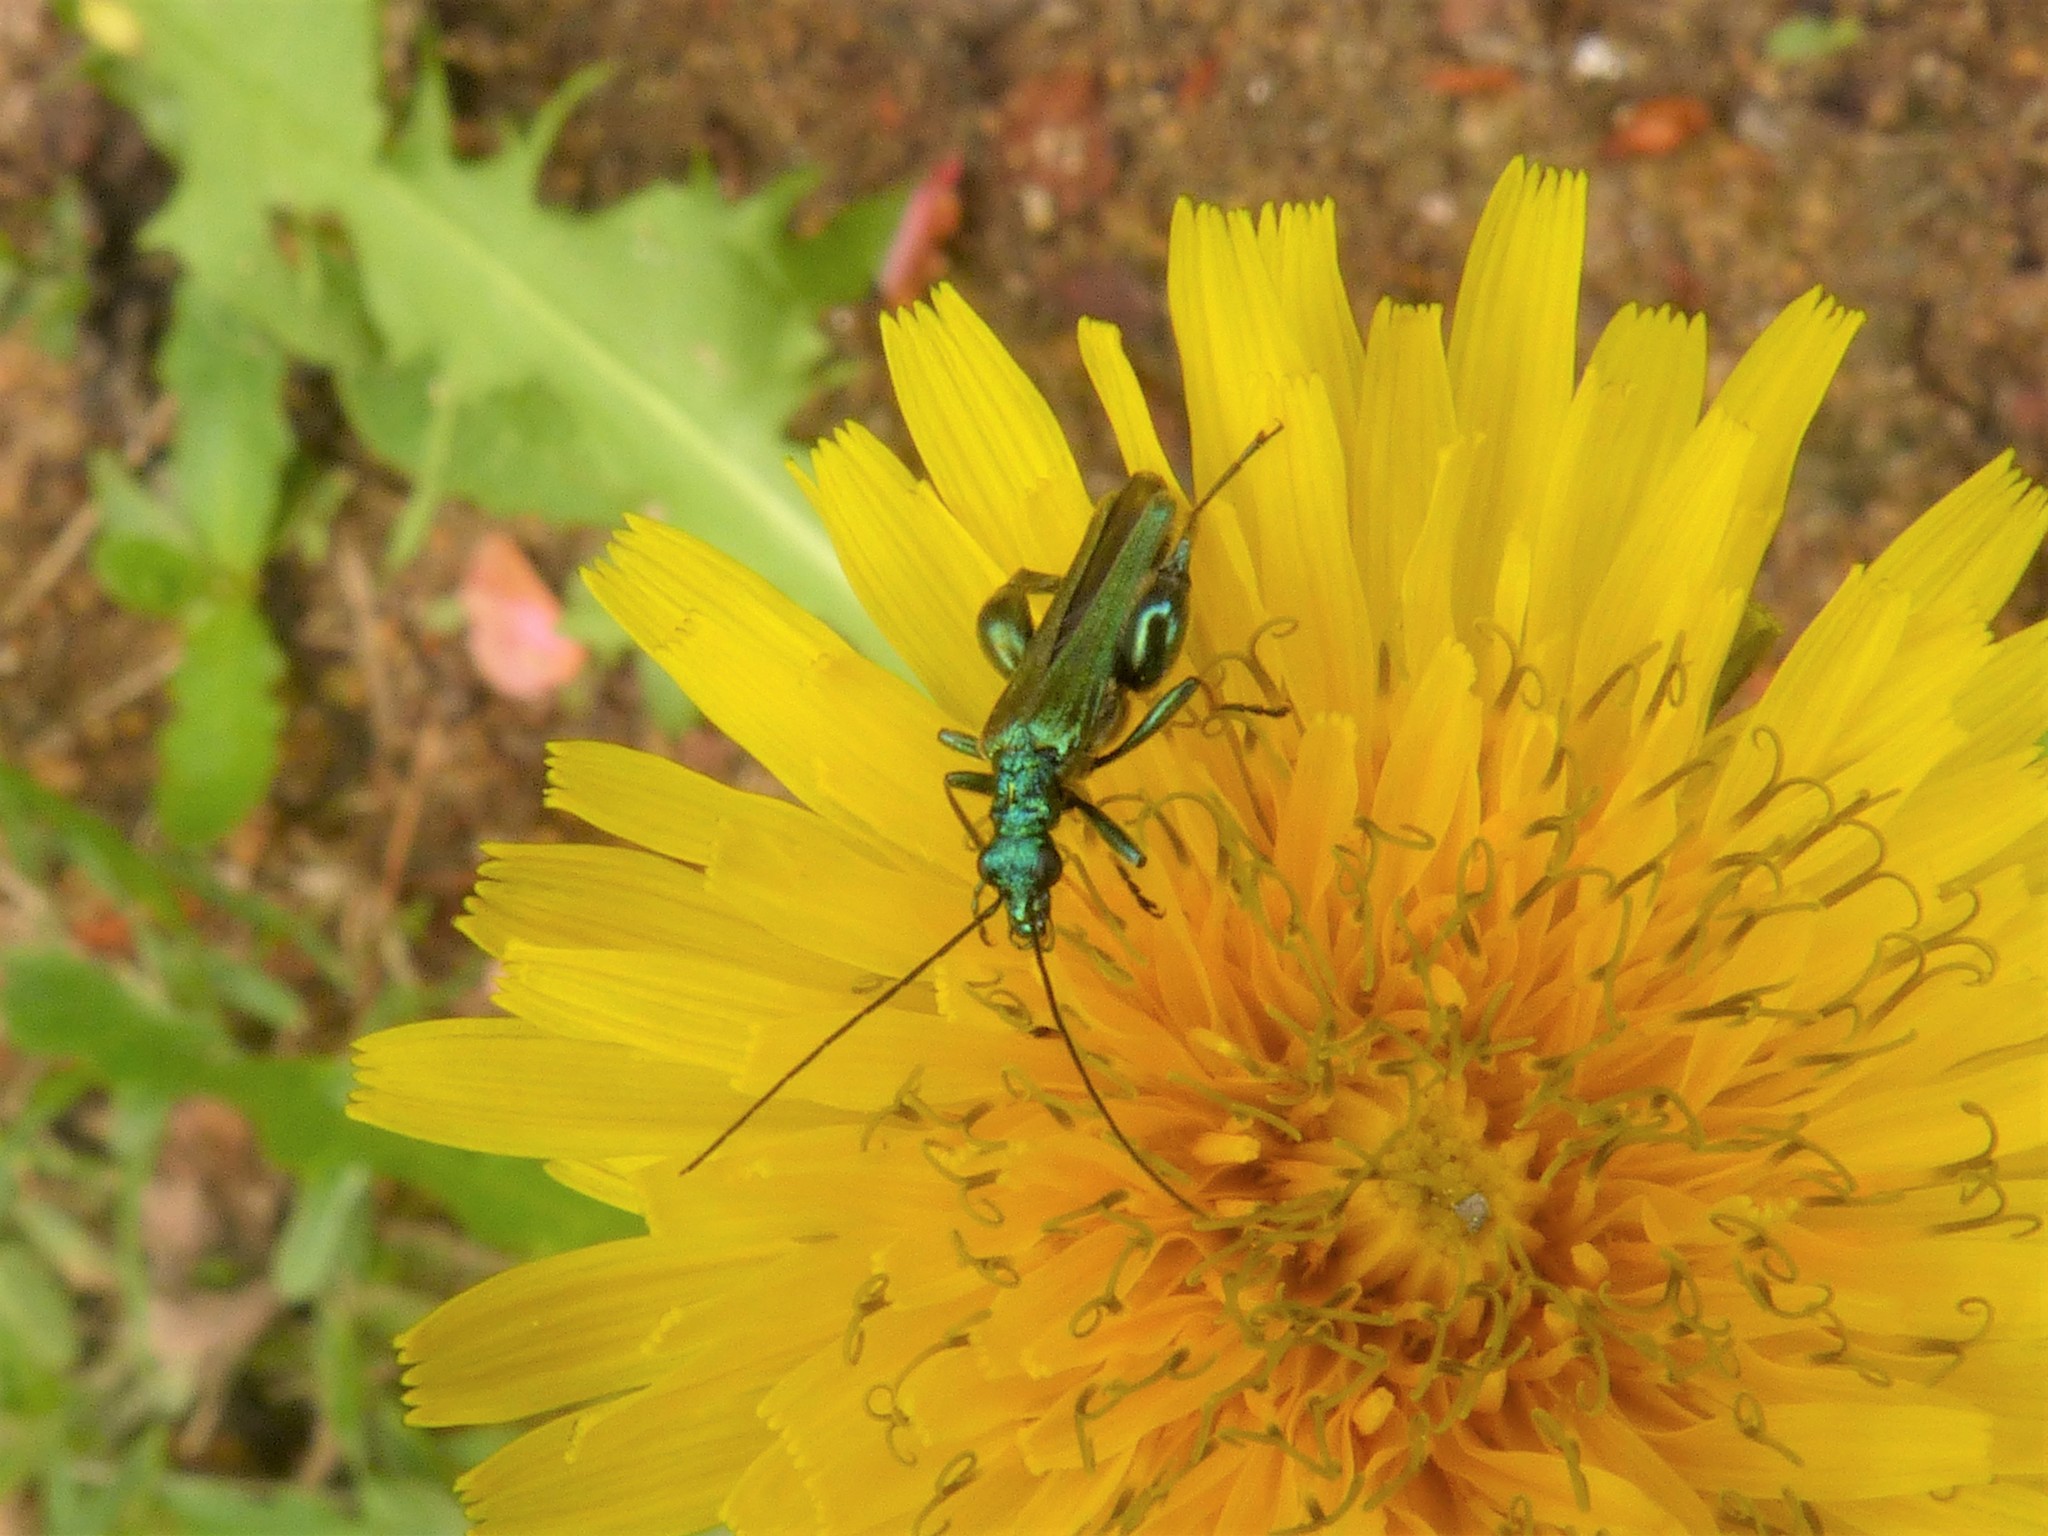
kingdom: Animalia
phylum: Arthropoda
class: Insecta
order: Coleoptera
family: Oedemeridae
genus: Oedemera
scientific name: Oedemera nobilis
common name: Swollen-thighed beetle
